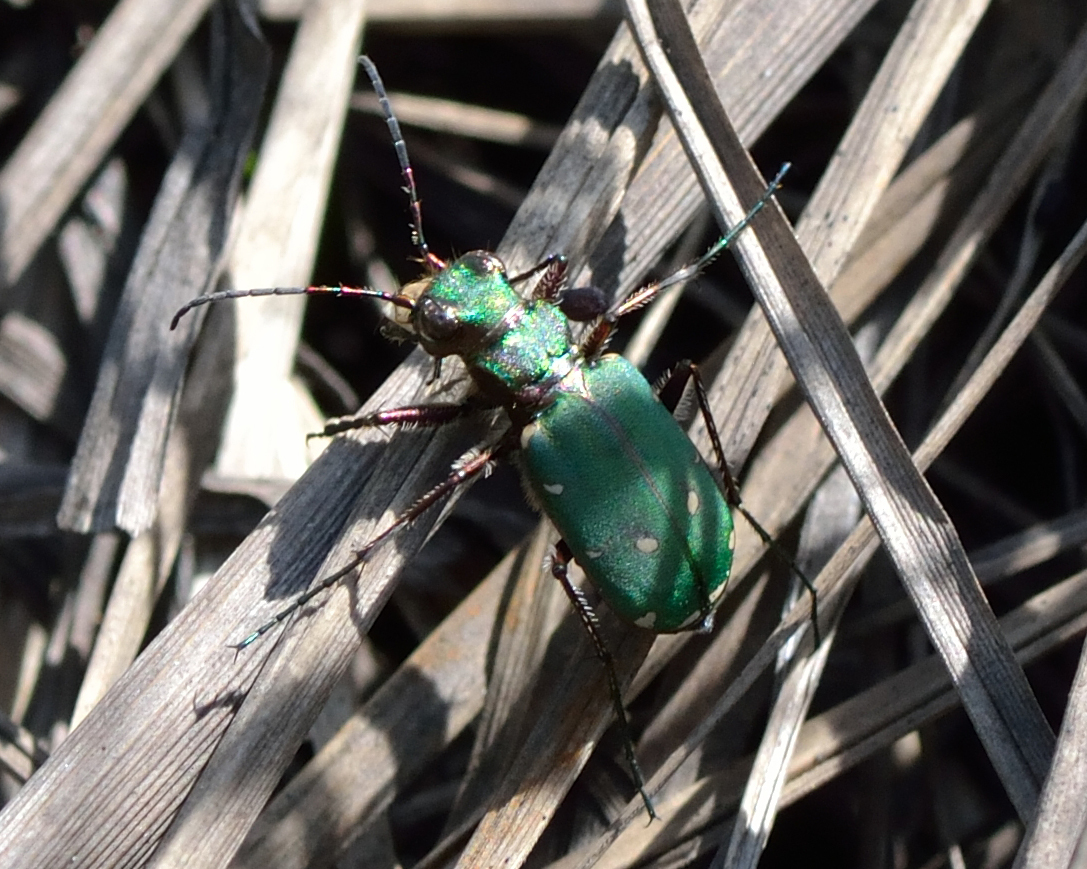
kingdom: Animalia
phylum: Arthropoda
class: Insecta
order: Coleoptera
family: Carabidae
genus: Cicindela
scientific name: Cicindela campestris
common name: Common tiger beetle
